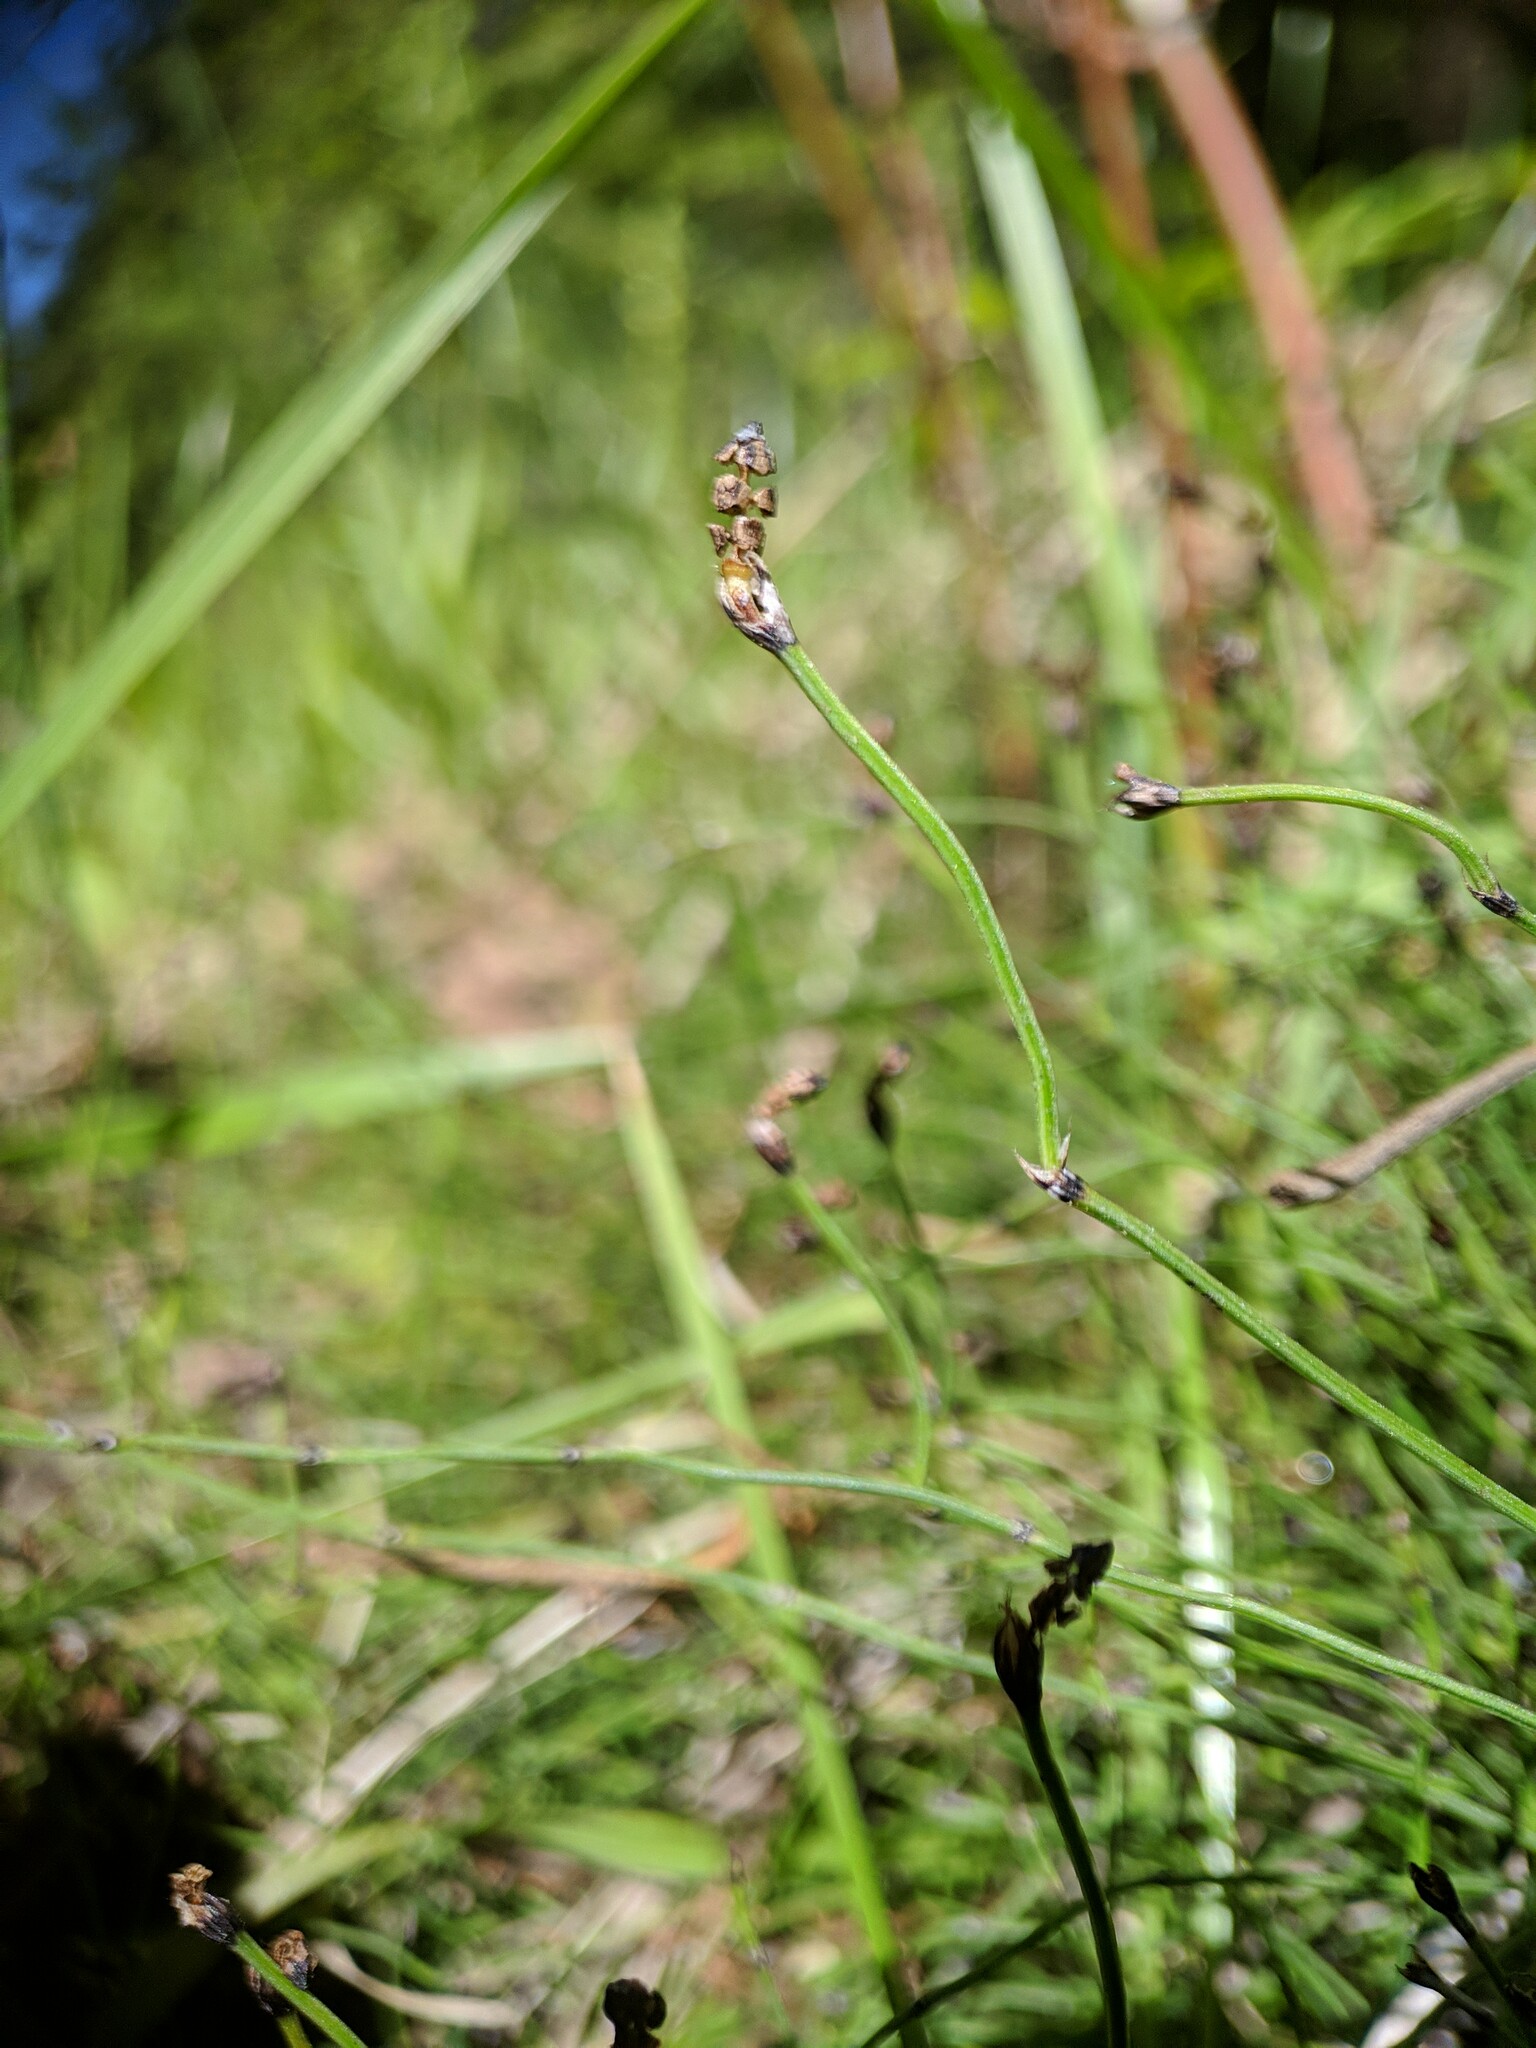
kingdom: Plantae
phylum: Tracheophyta
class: Polypodiopsida
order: Equisetales
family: Equisetaceae
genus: Equisetum
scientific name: Equisetum scirpoides
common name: Delicate horsetail
